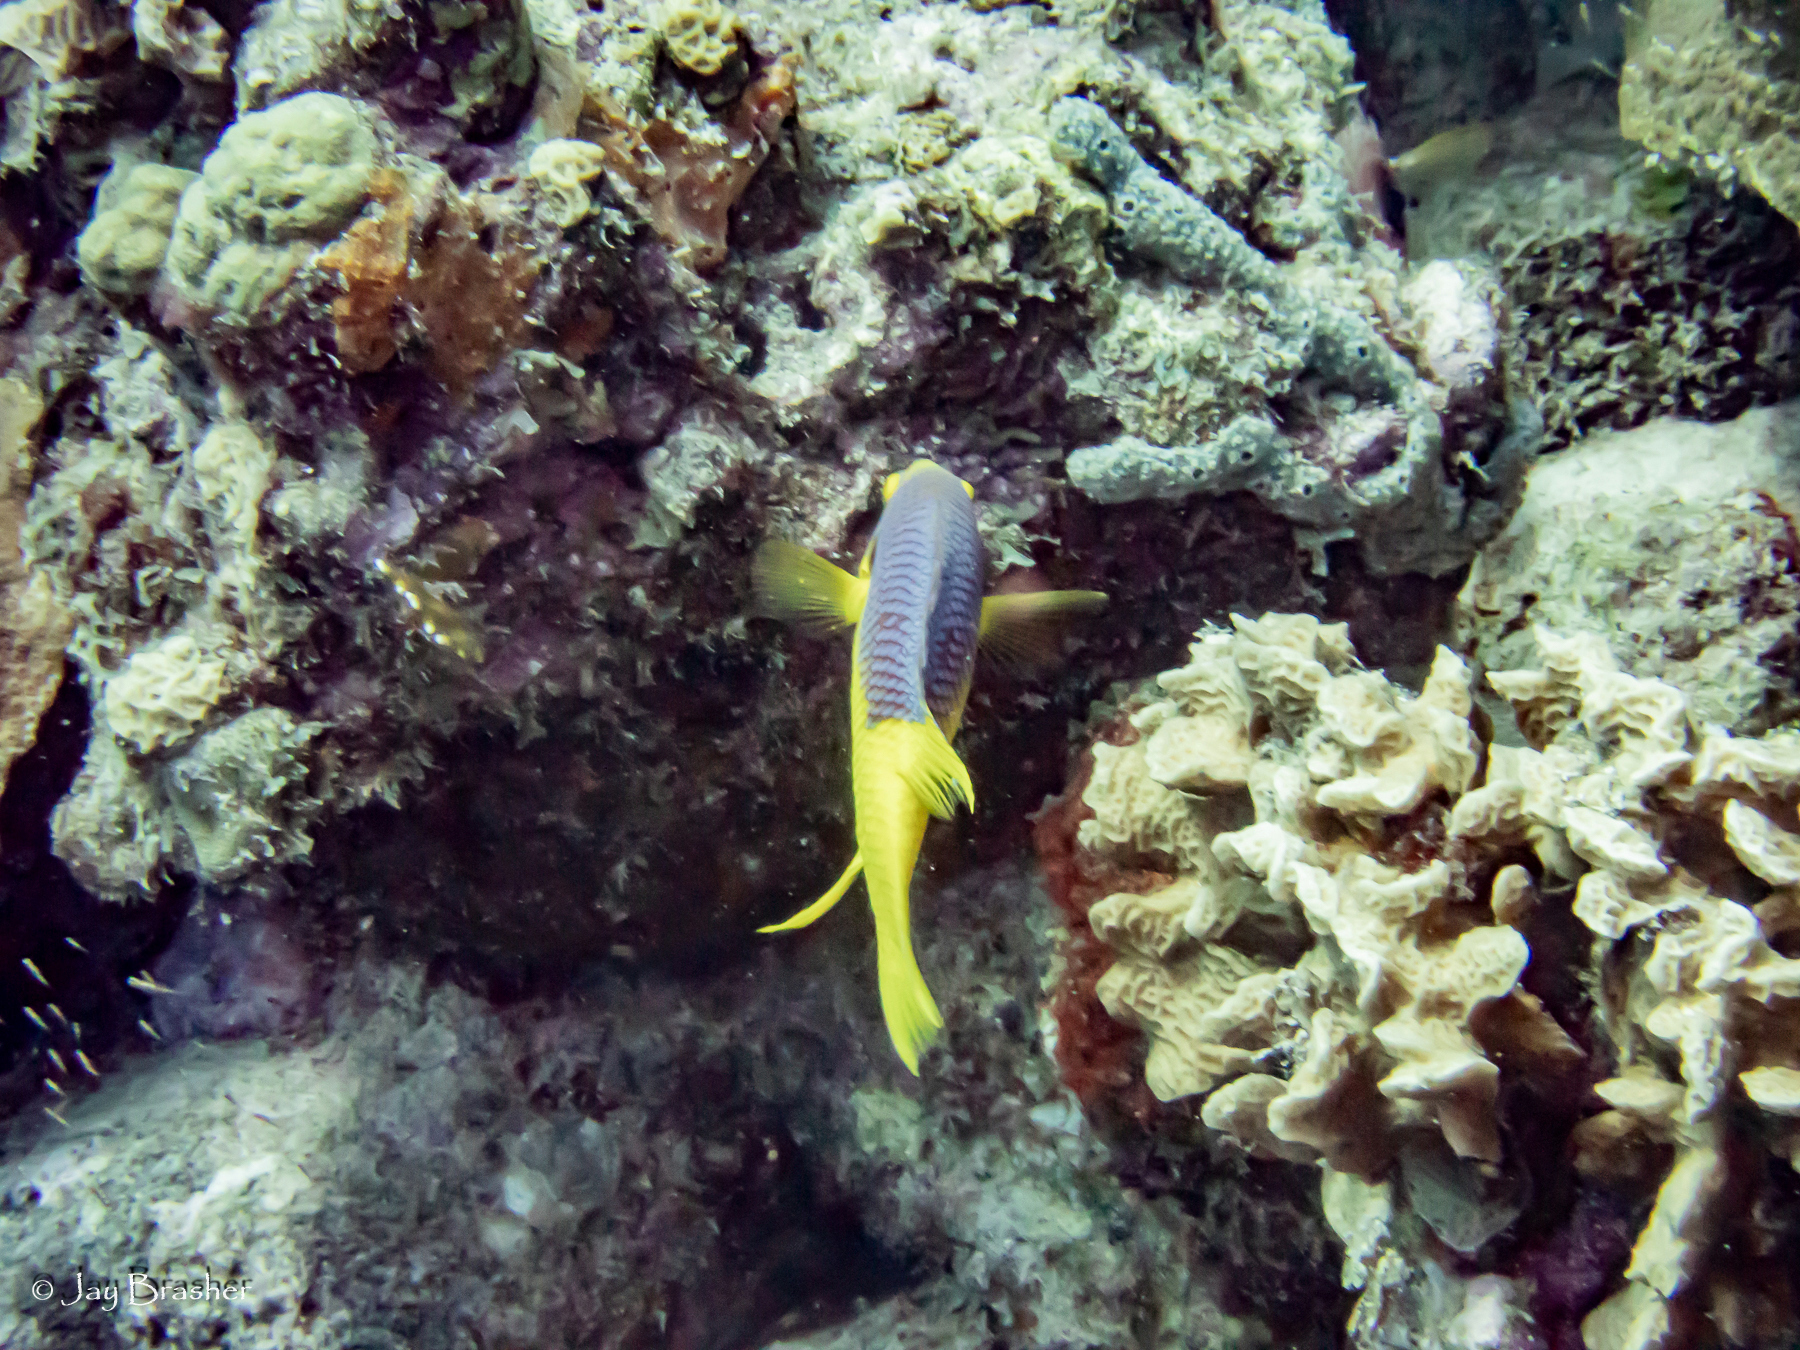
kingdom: Animalia
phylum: Chordata
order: Perciformes
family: Labridae
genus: Bodianus
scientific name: Bodianus rufus
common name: Spanish hogfish
